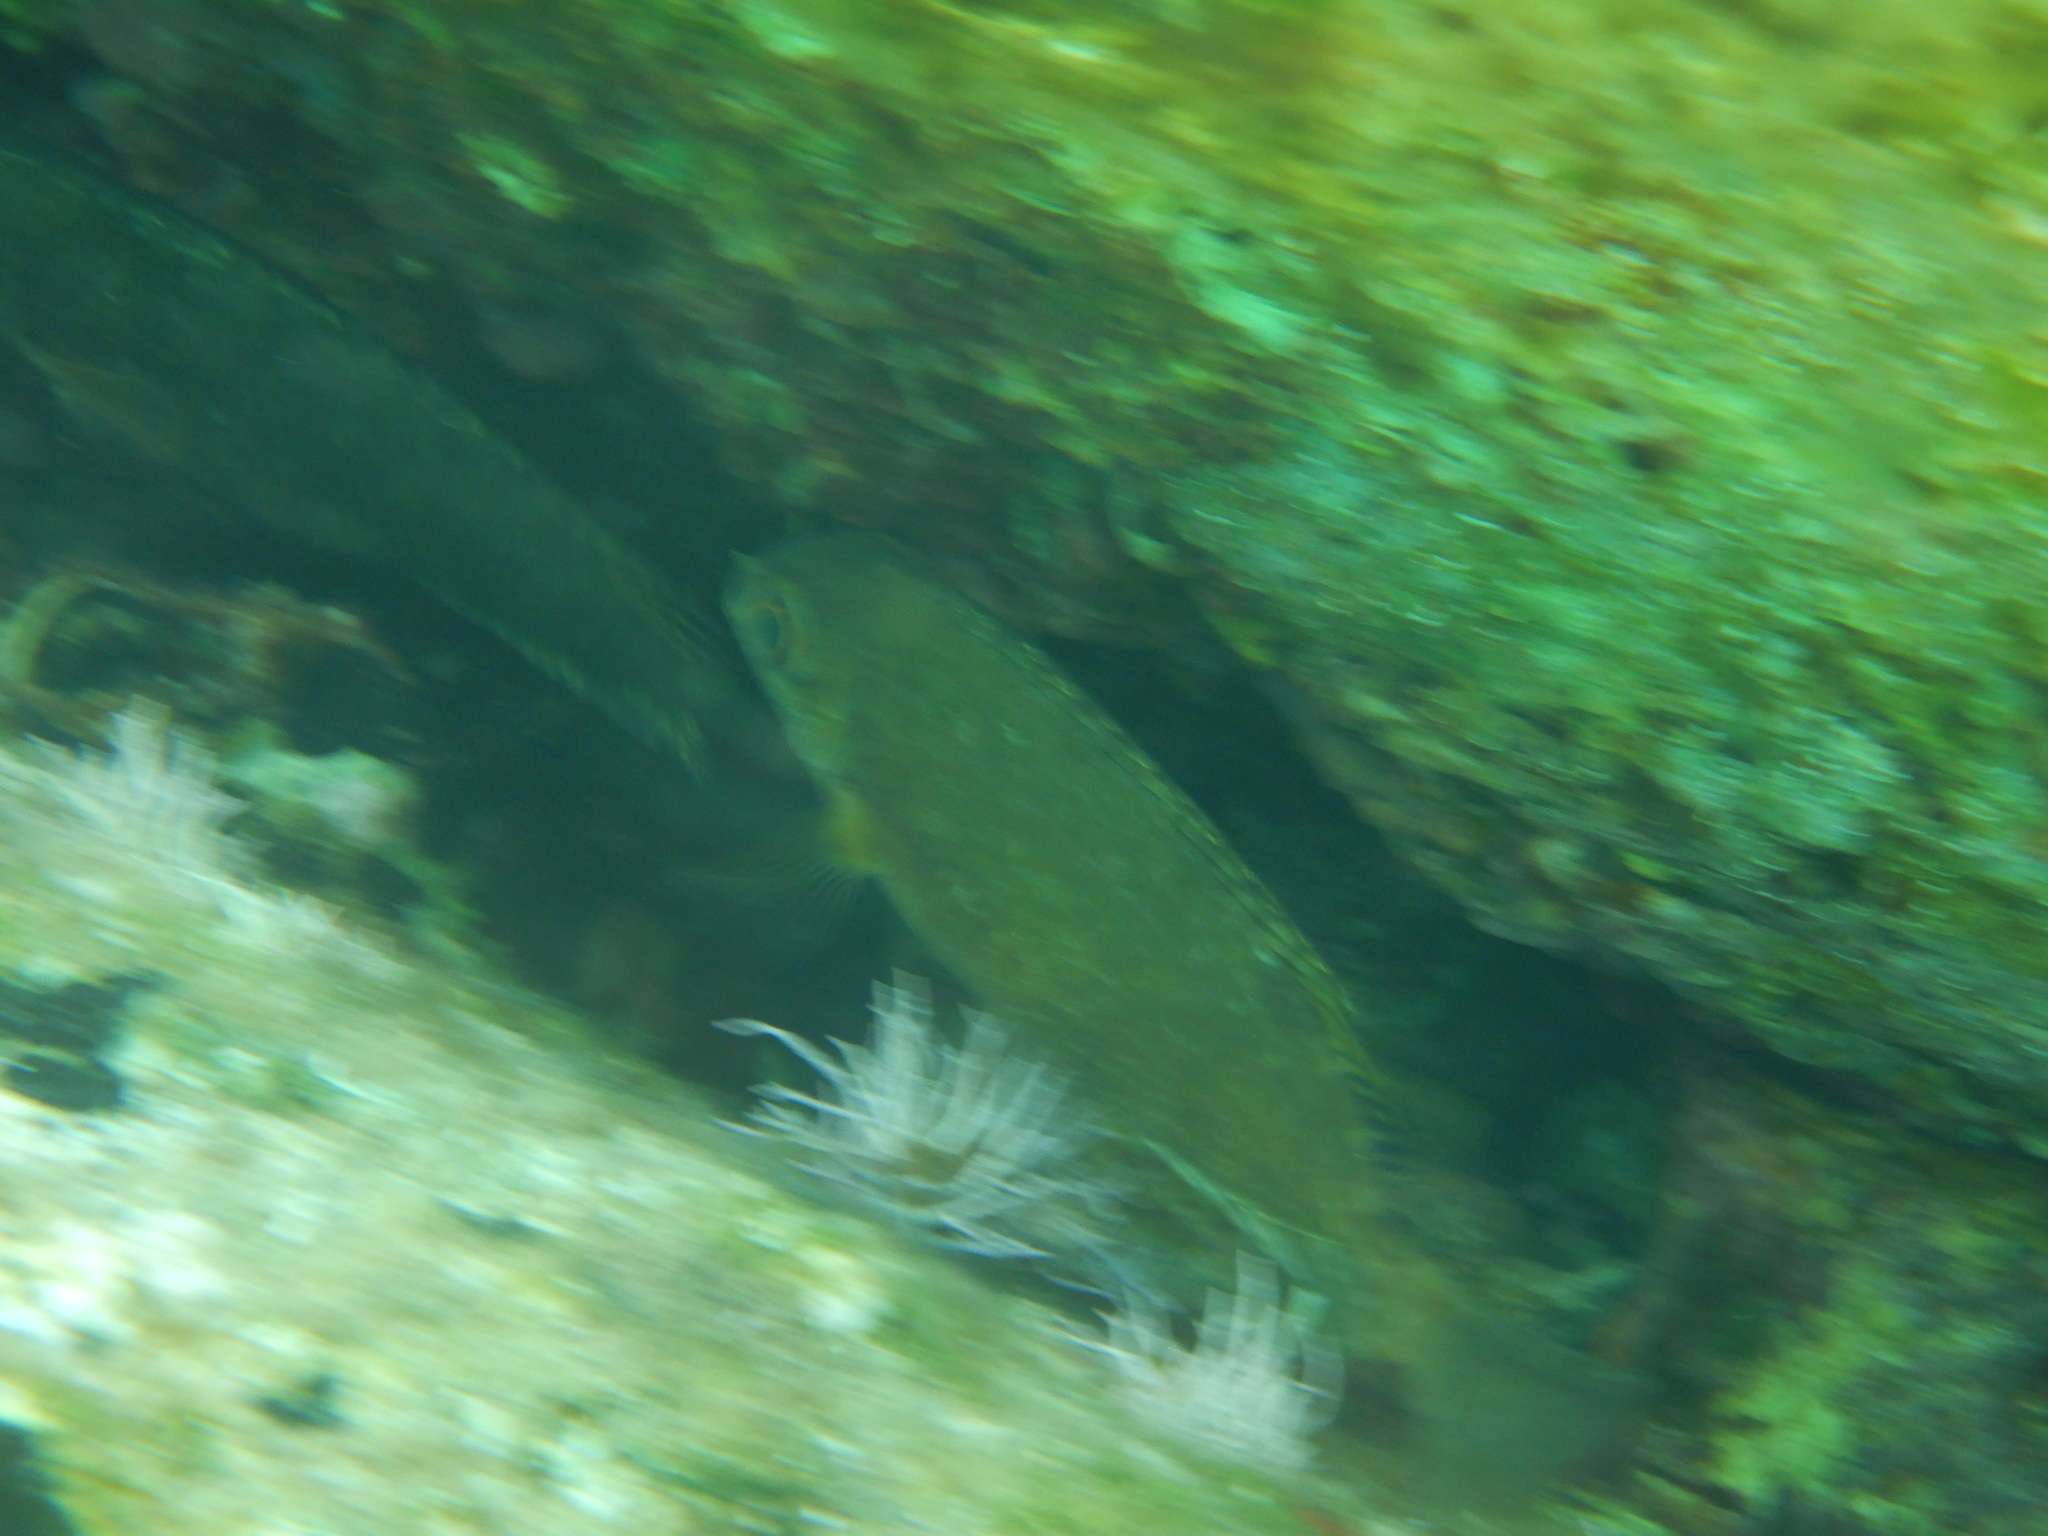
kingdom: Animalia
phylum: Chordata
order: Perciformes
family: Siganidae
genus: Siganus
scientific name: Siganus luridus
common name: Dusky spinefoot
